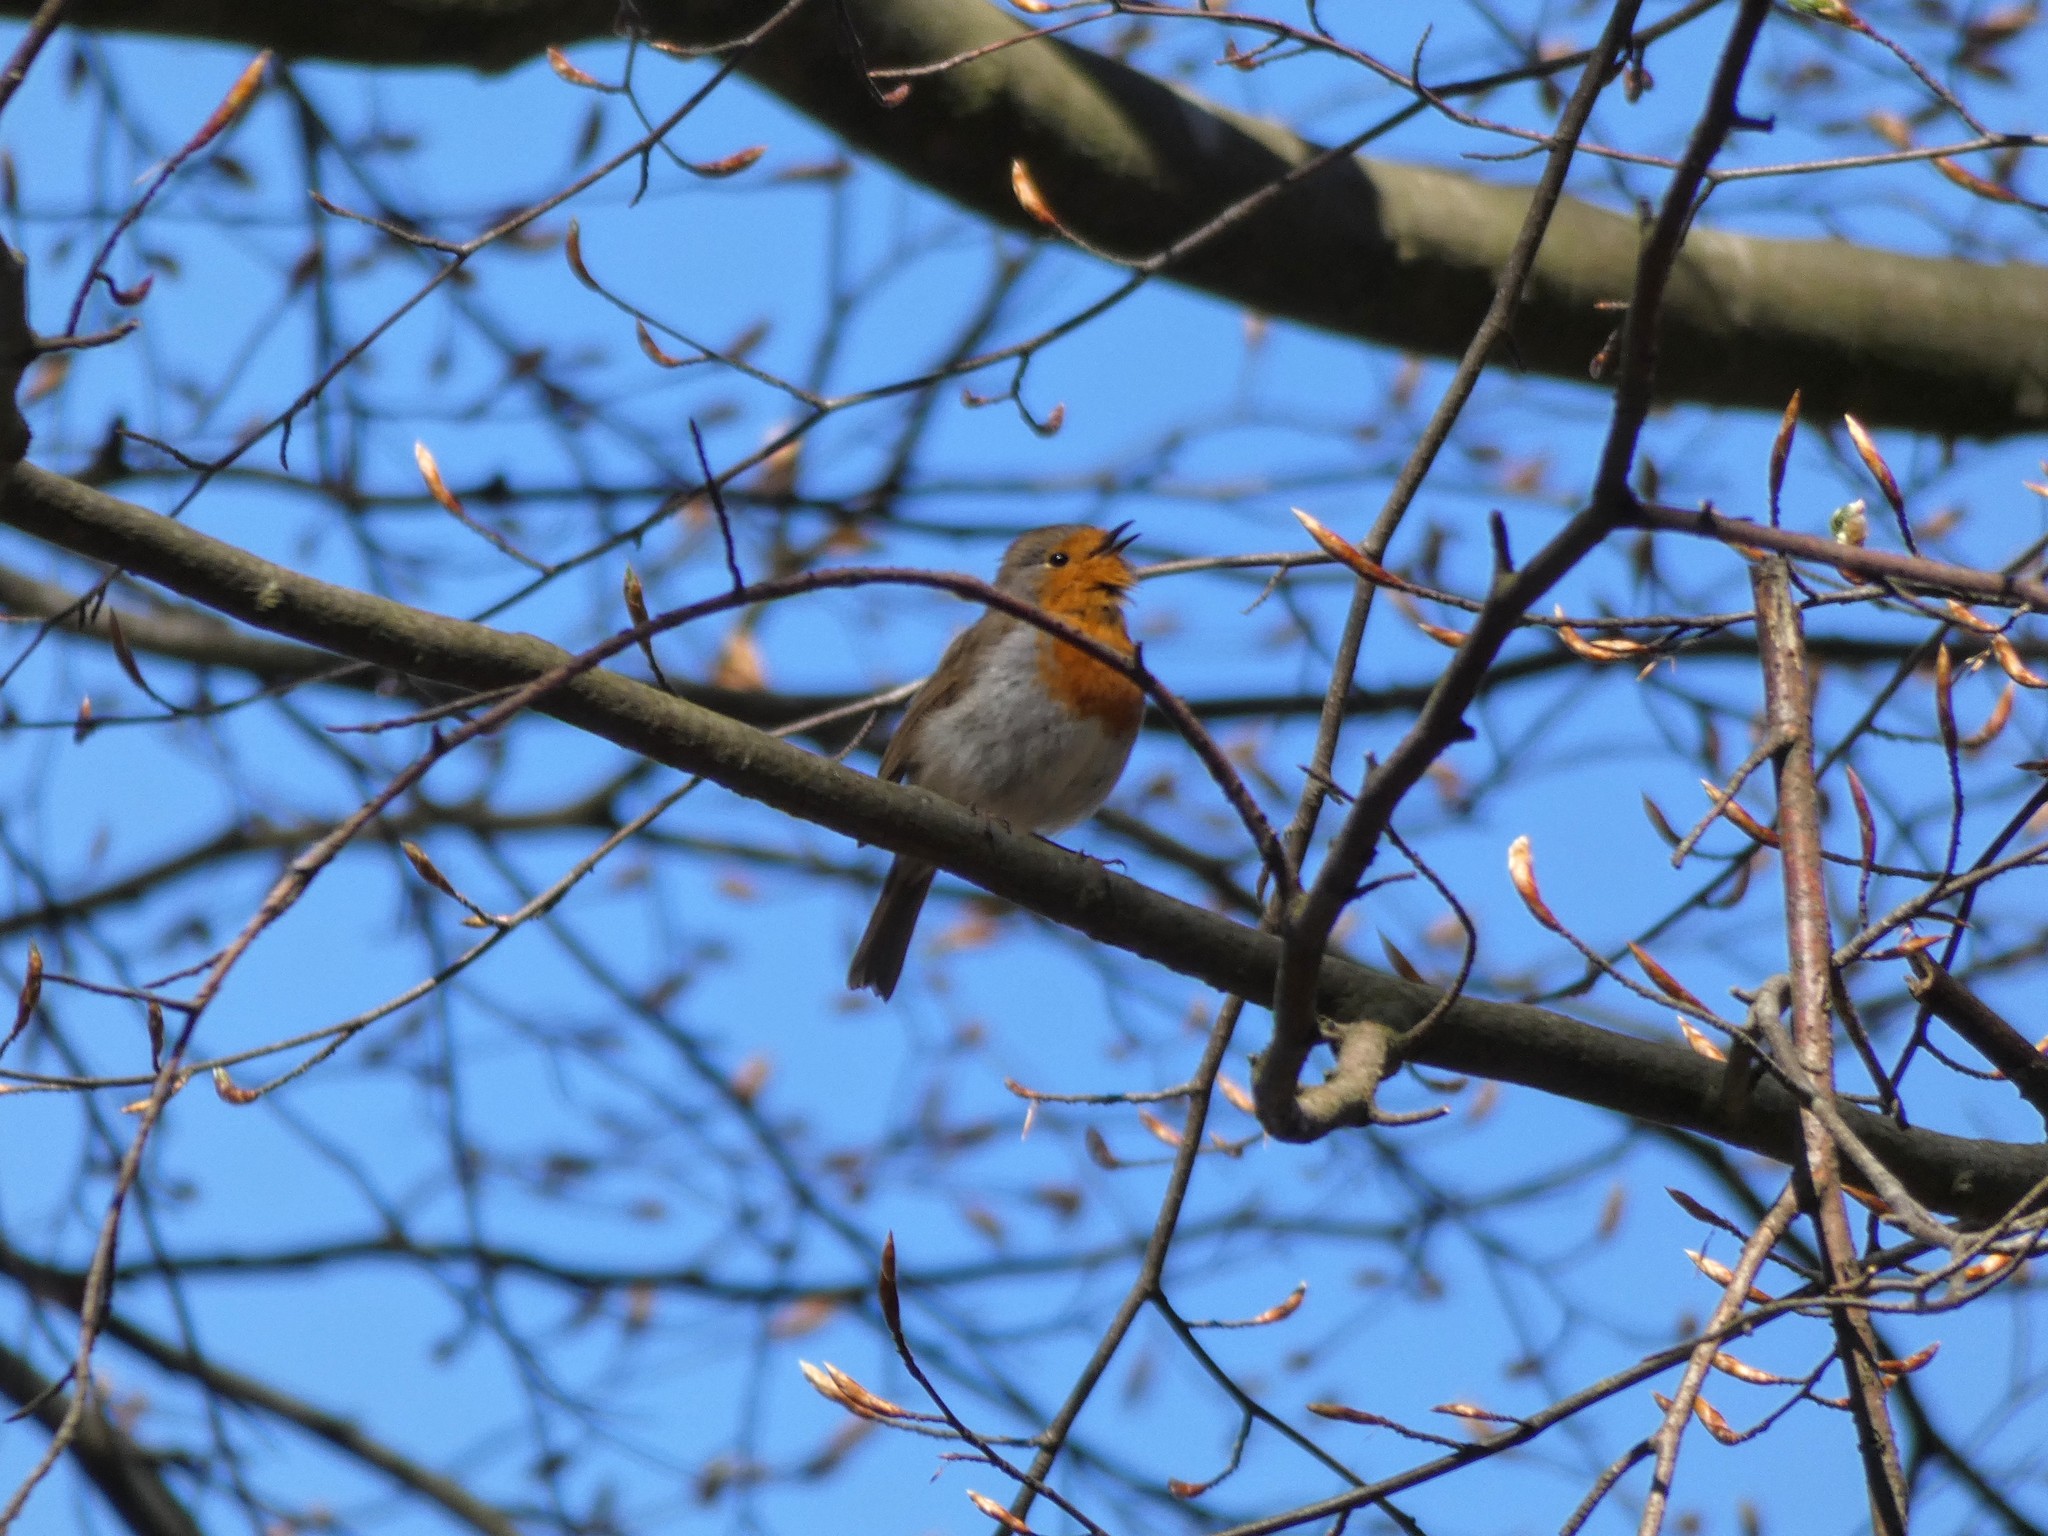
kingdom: Animalia
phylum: Chordata
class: Aves
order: Passeriformes
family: Muscicapidae
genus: Erithacus
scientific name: Erithacus rubecula
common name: European robin
